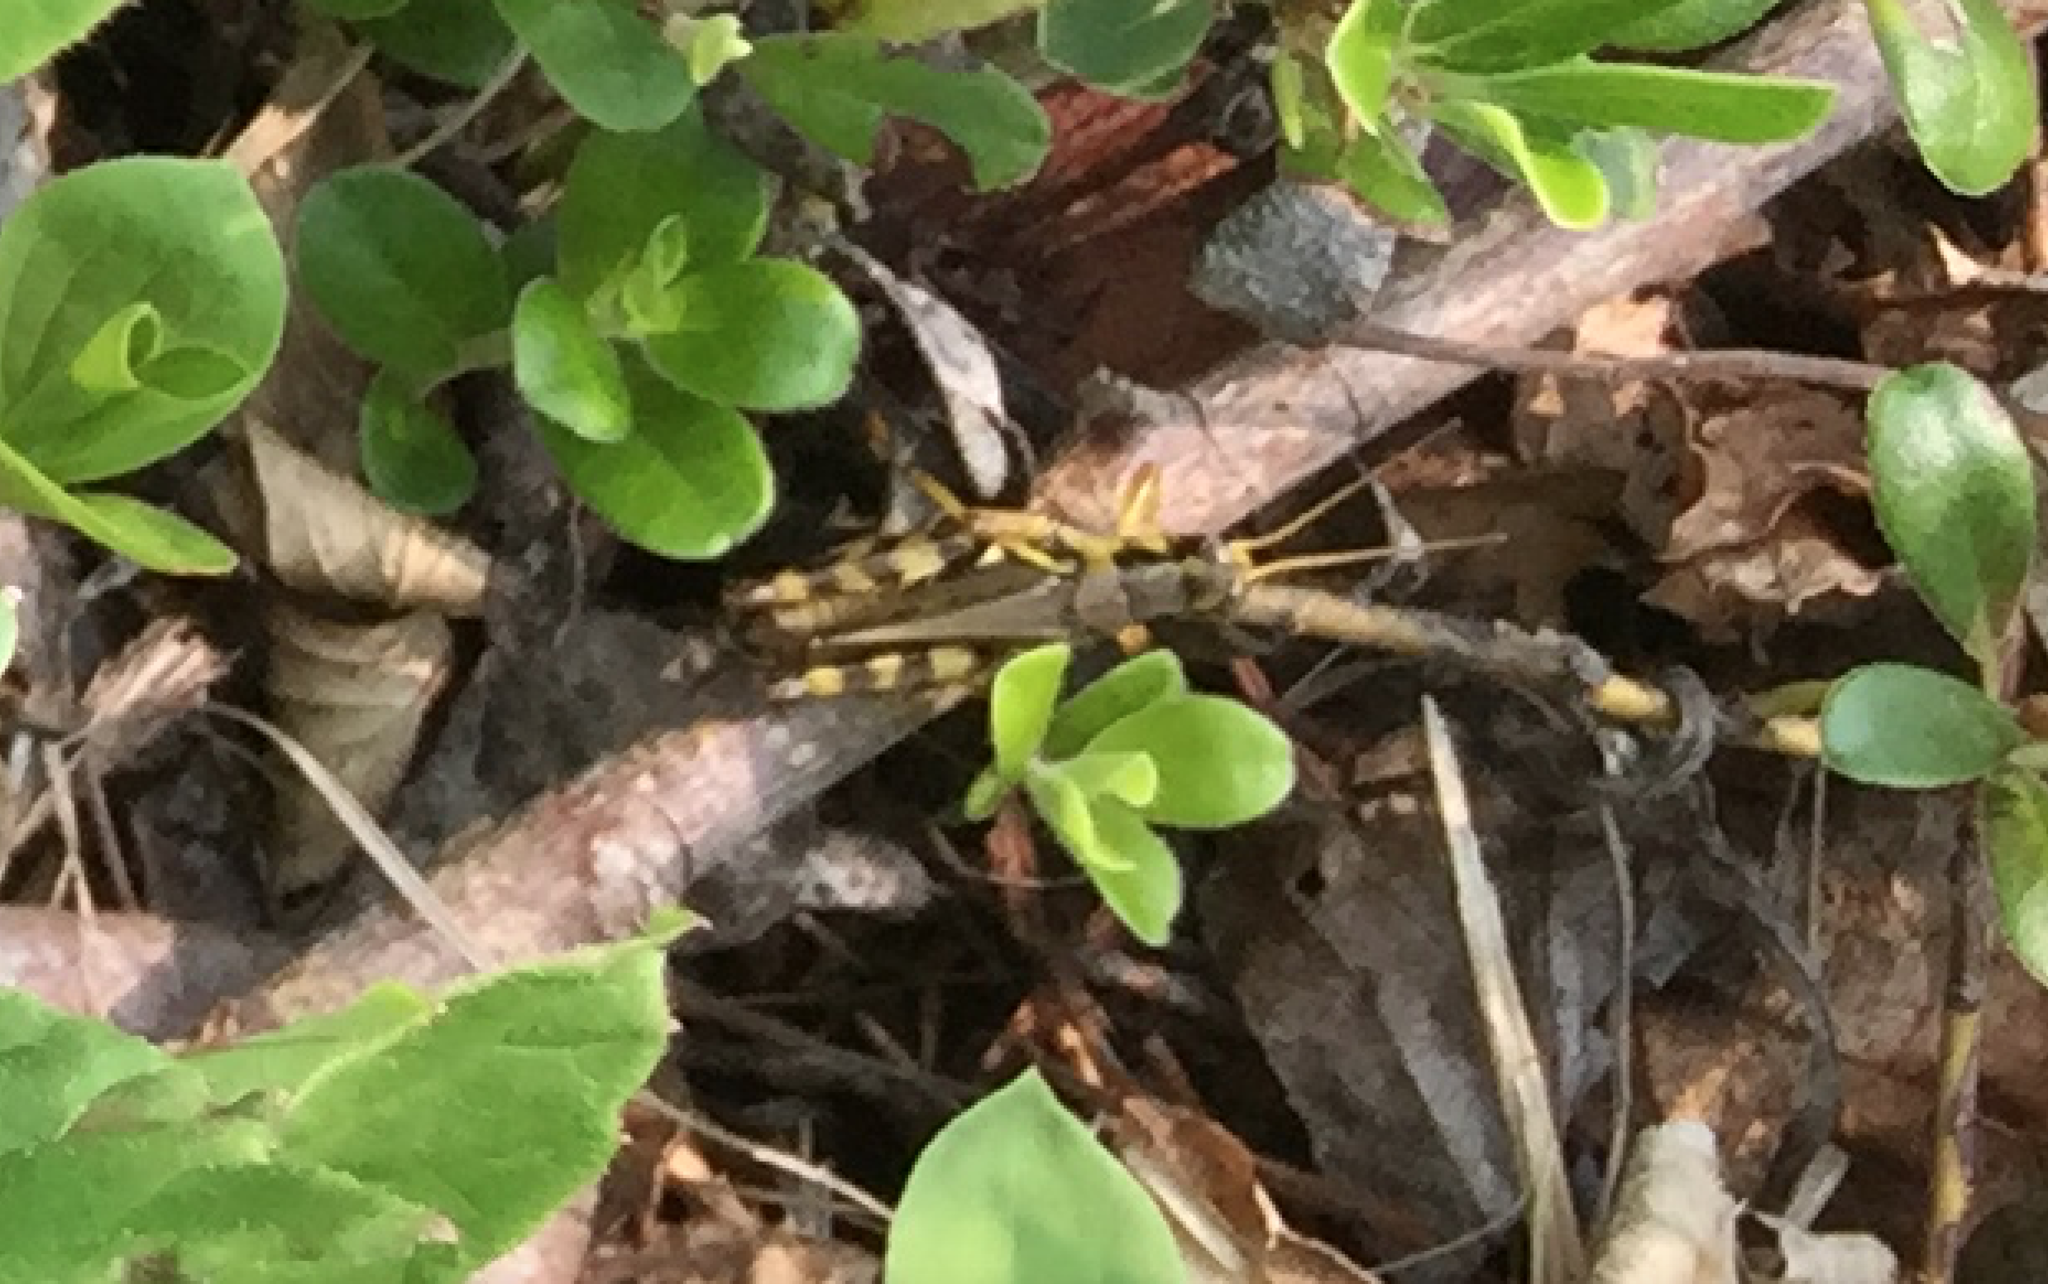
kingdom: Animalia
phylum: Arthropoda
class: Insecta
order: Orthoptera
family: Acrididae
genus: Melanoplus
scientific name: Melanoplus fasciatus
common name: Huckleberry locust
